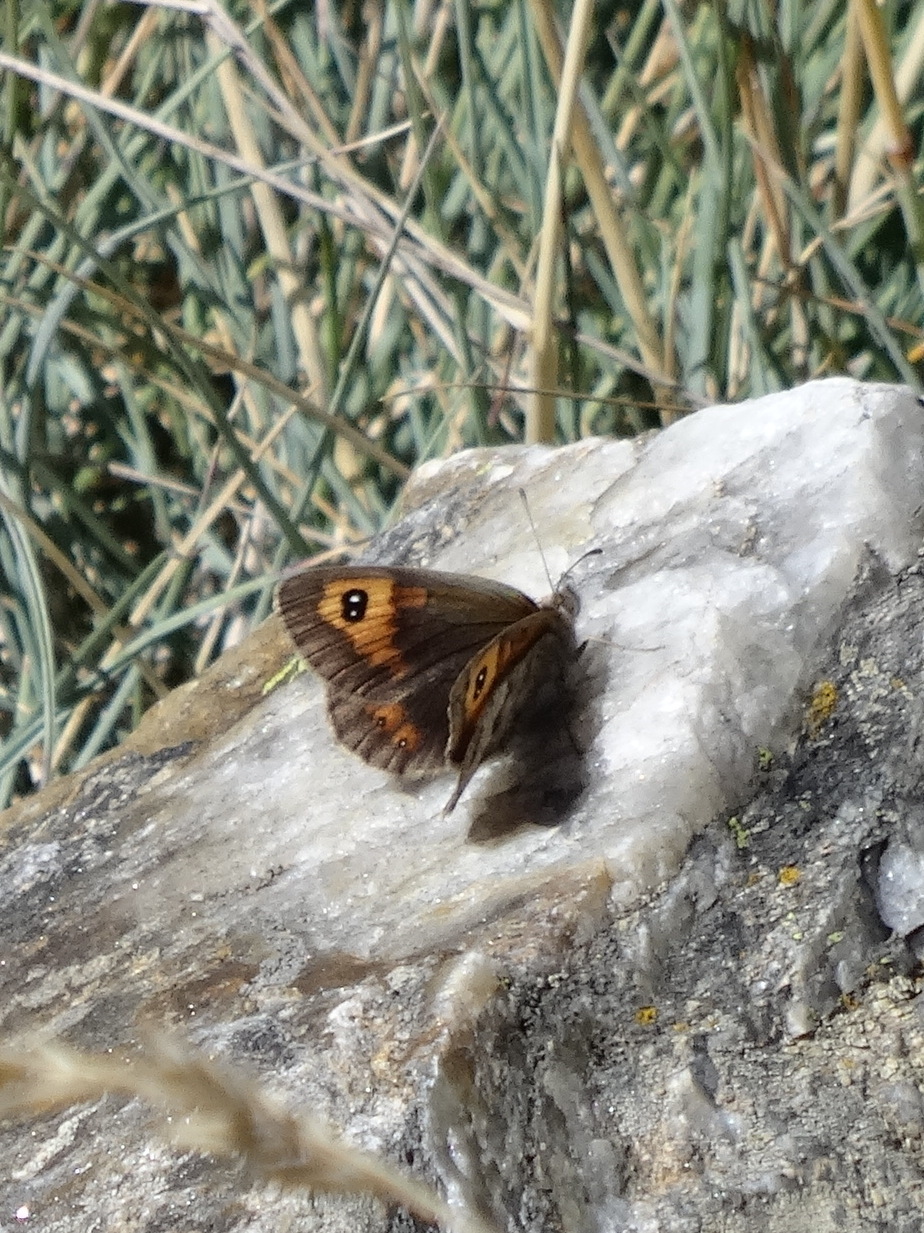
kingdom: Animalia
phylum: Arthropoda
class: Insecta
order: Lepidoptera
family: Nymphalidae
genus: Erebia
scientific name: Erebia tyndarus
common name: Swiss brassy ringlet
